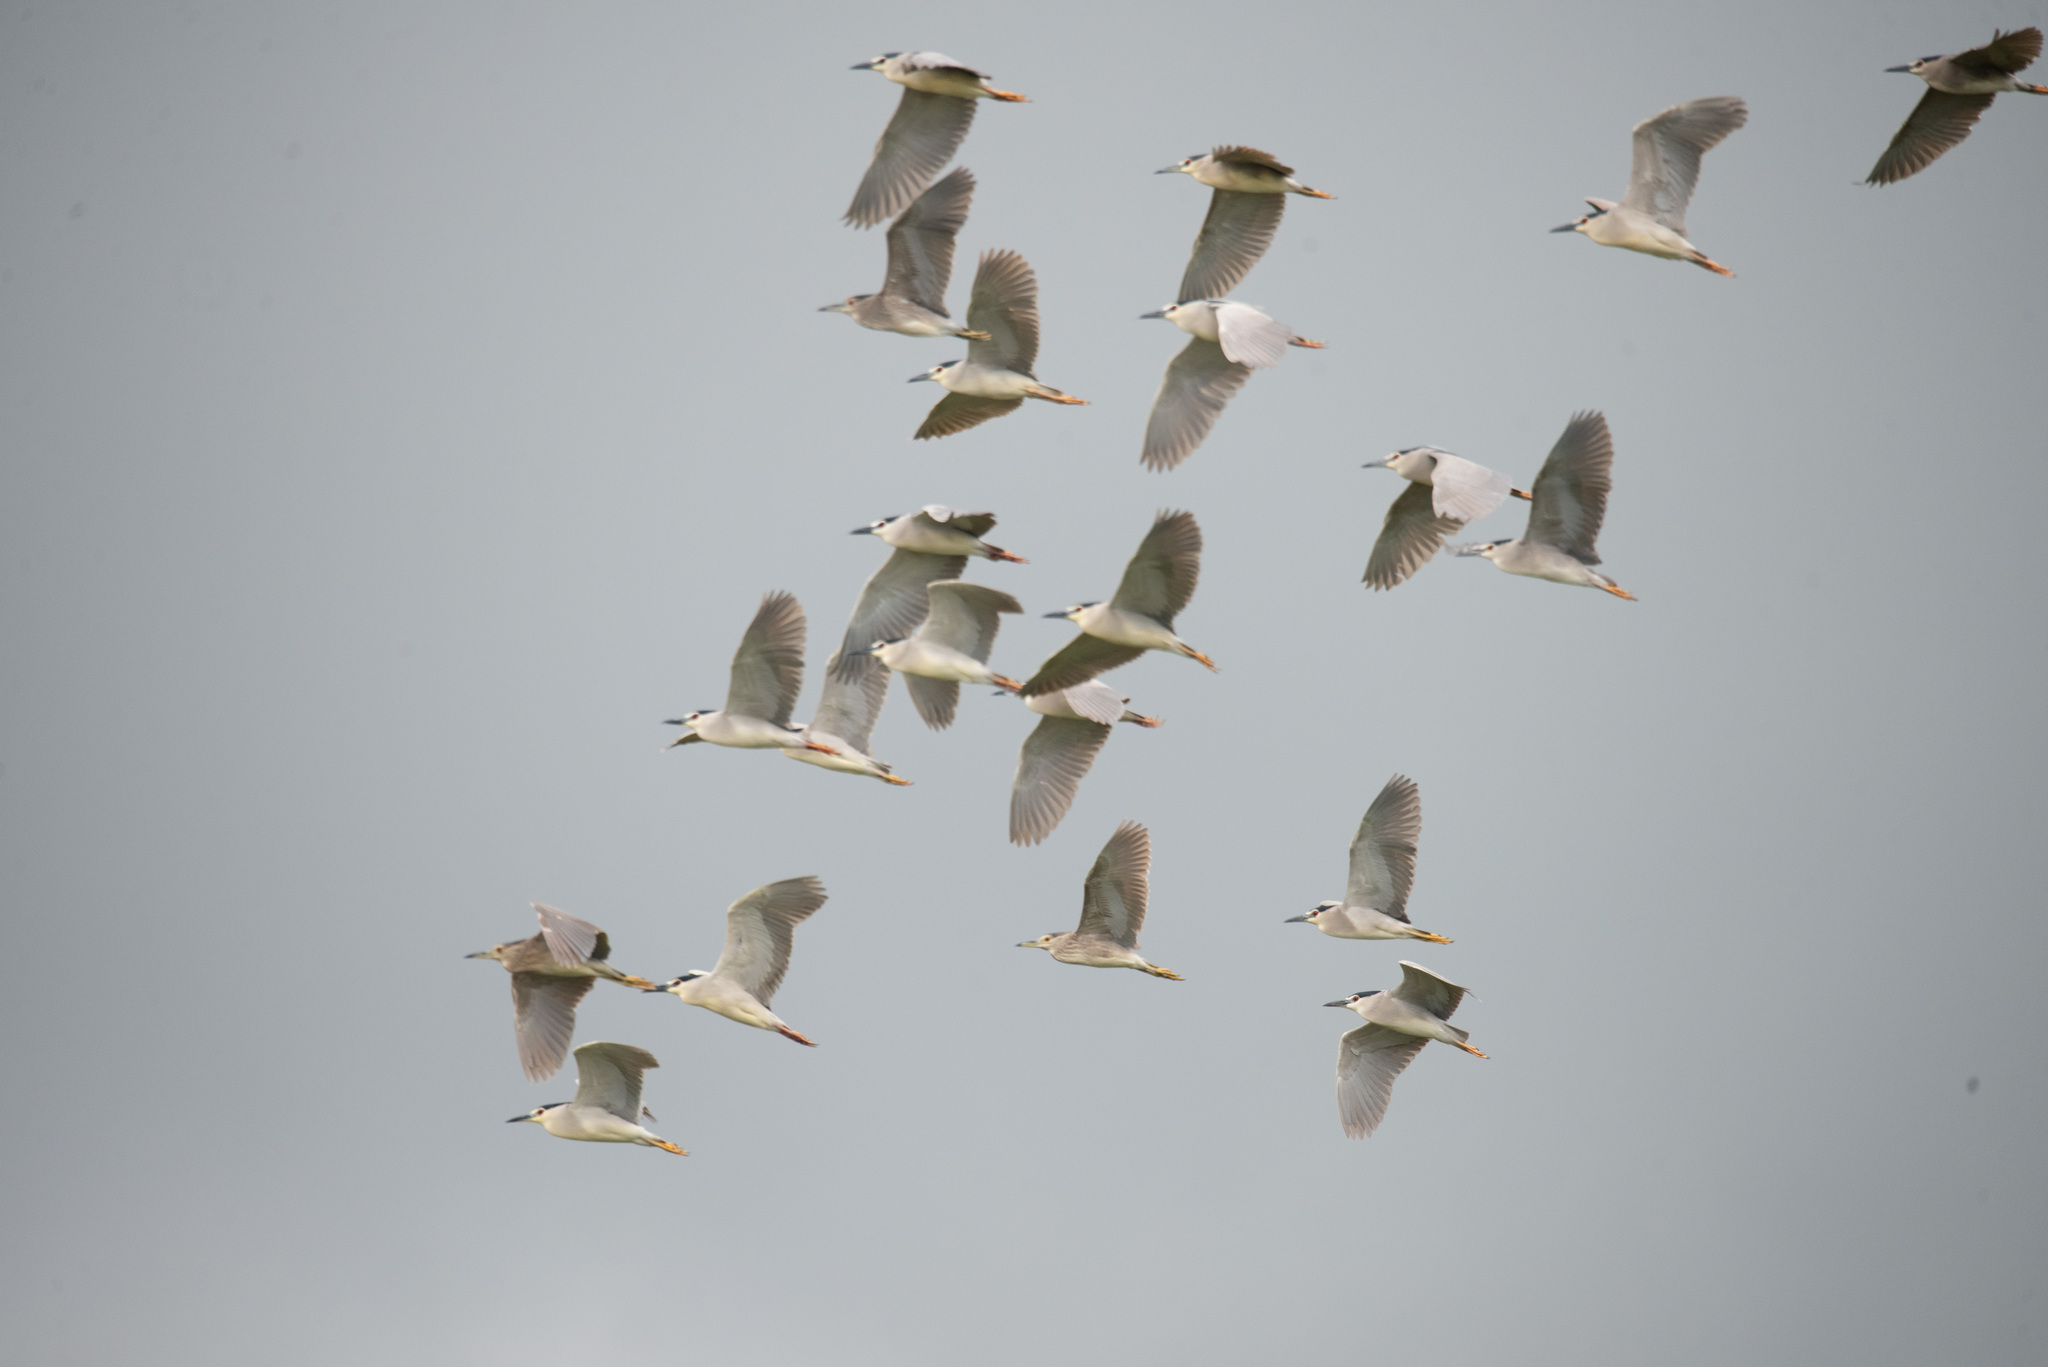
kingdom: Animalia
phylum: Chordata
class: Aves
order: Pelecaniformes
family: Ardeidae
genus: Nycticorax
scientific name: Nycticorax nycticorax
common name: Black-crowned night heron
